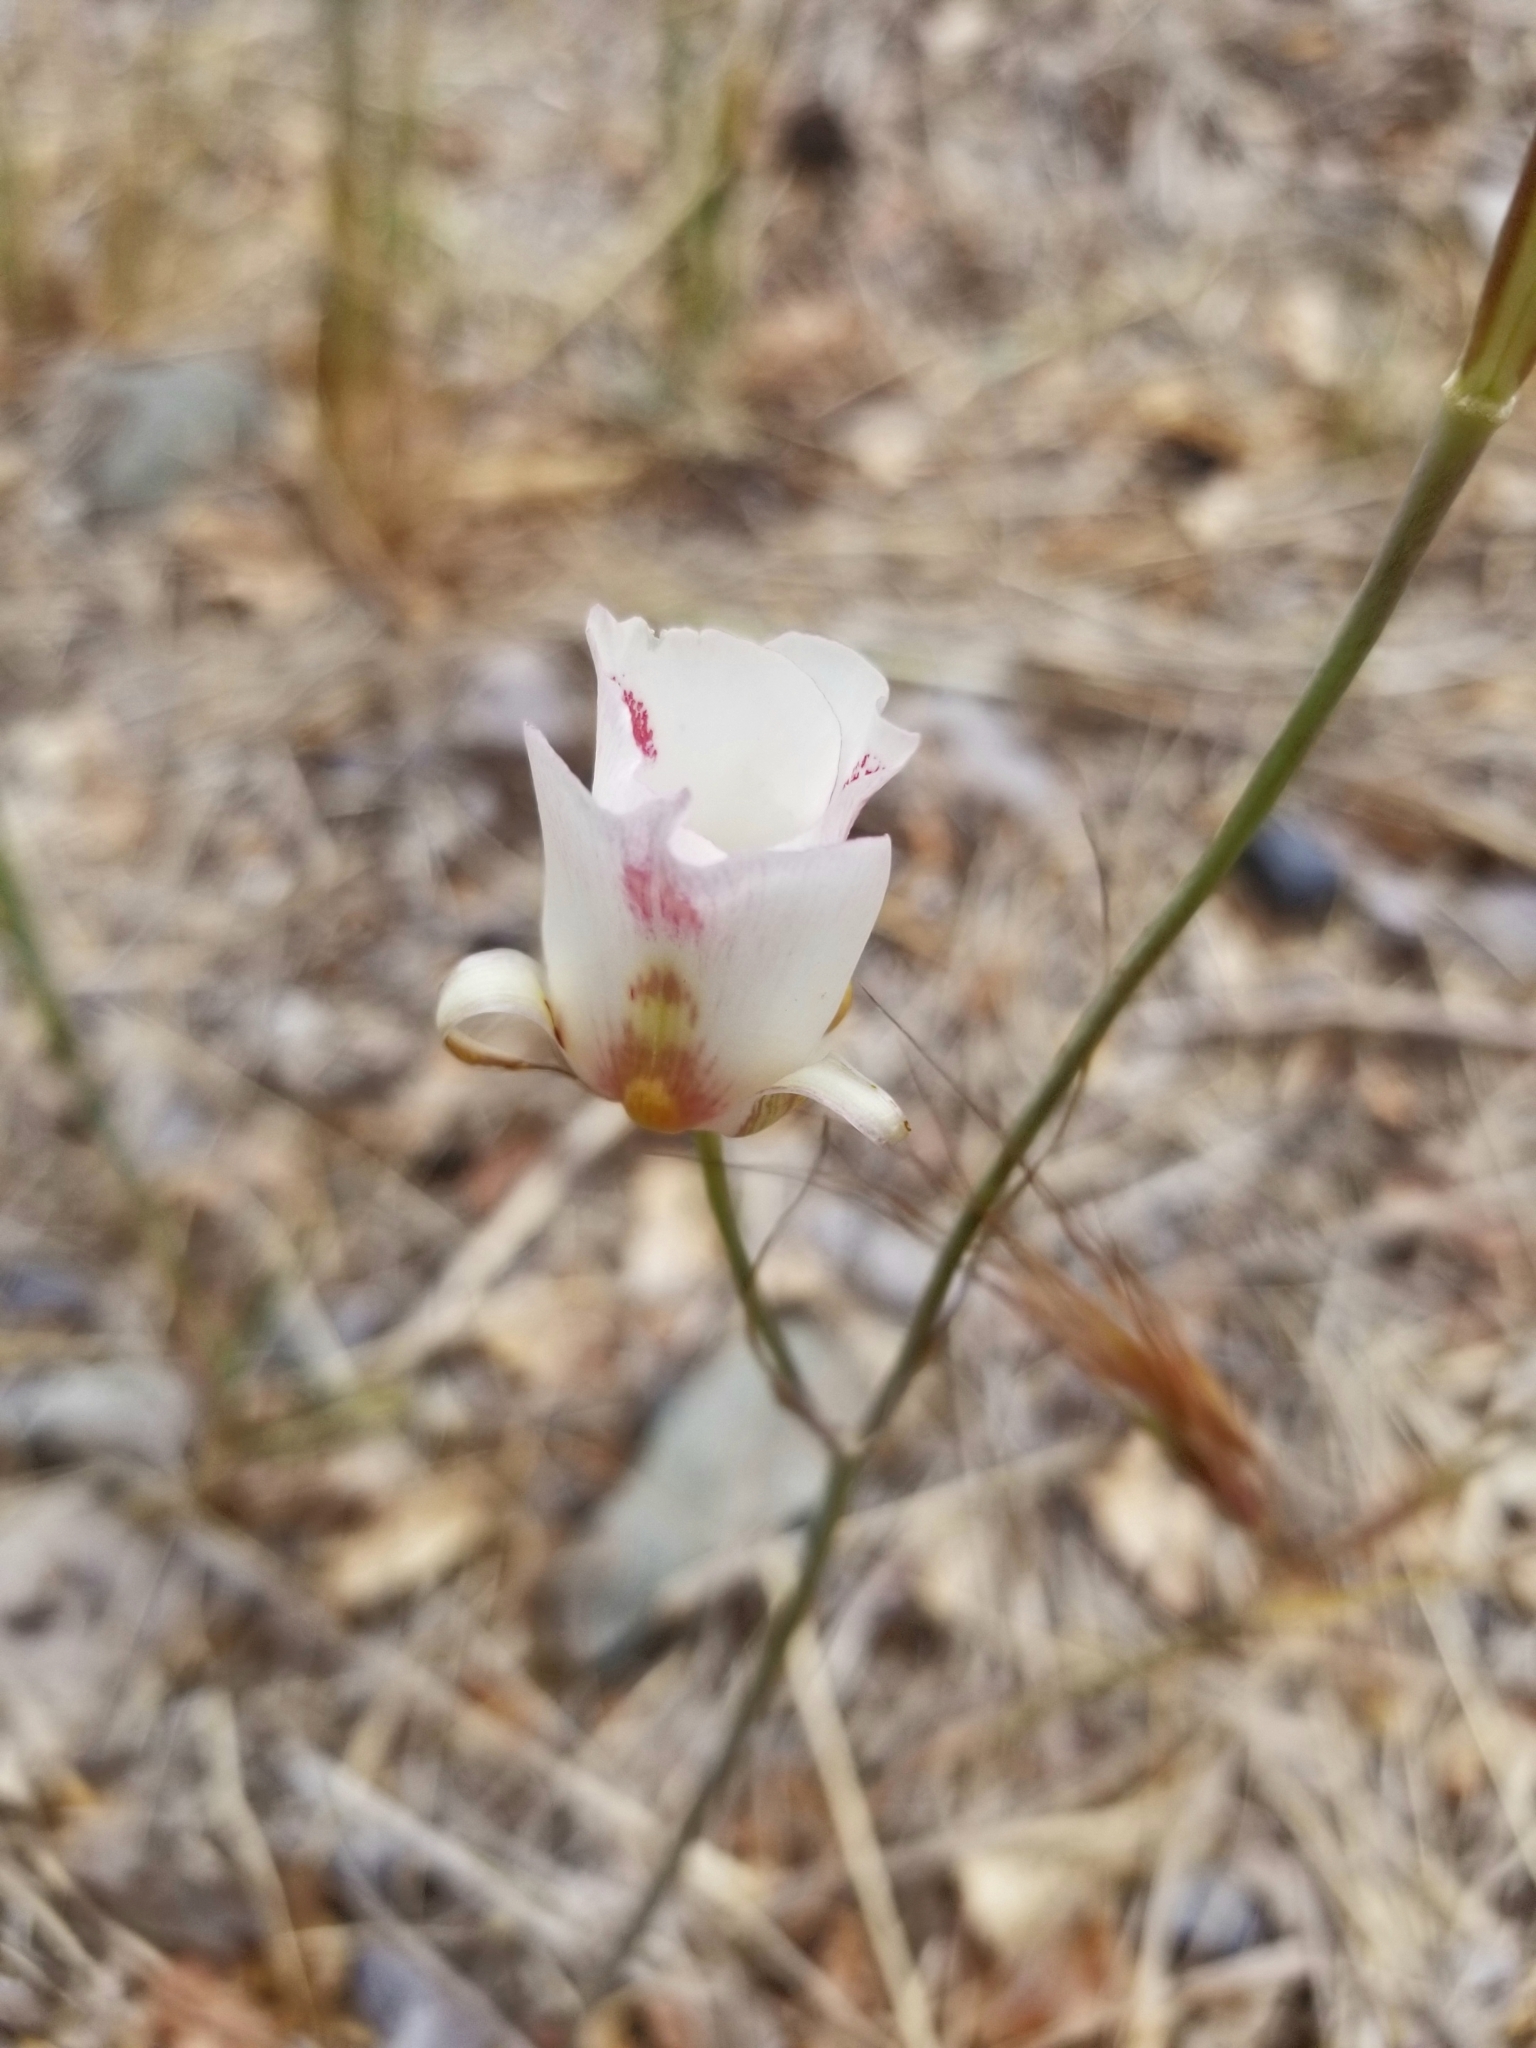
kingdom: Plantae
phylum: Tracheophyta
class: Liliopsida
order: Liliales
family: Liliaceae
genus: Calochortus
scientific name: Calochortus venustus
